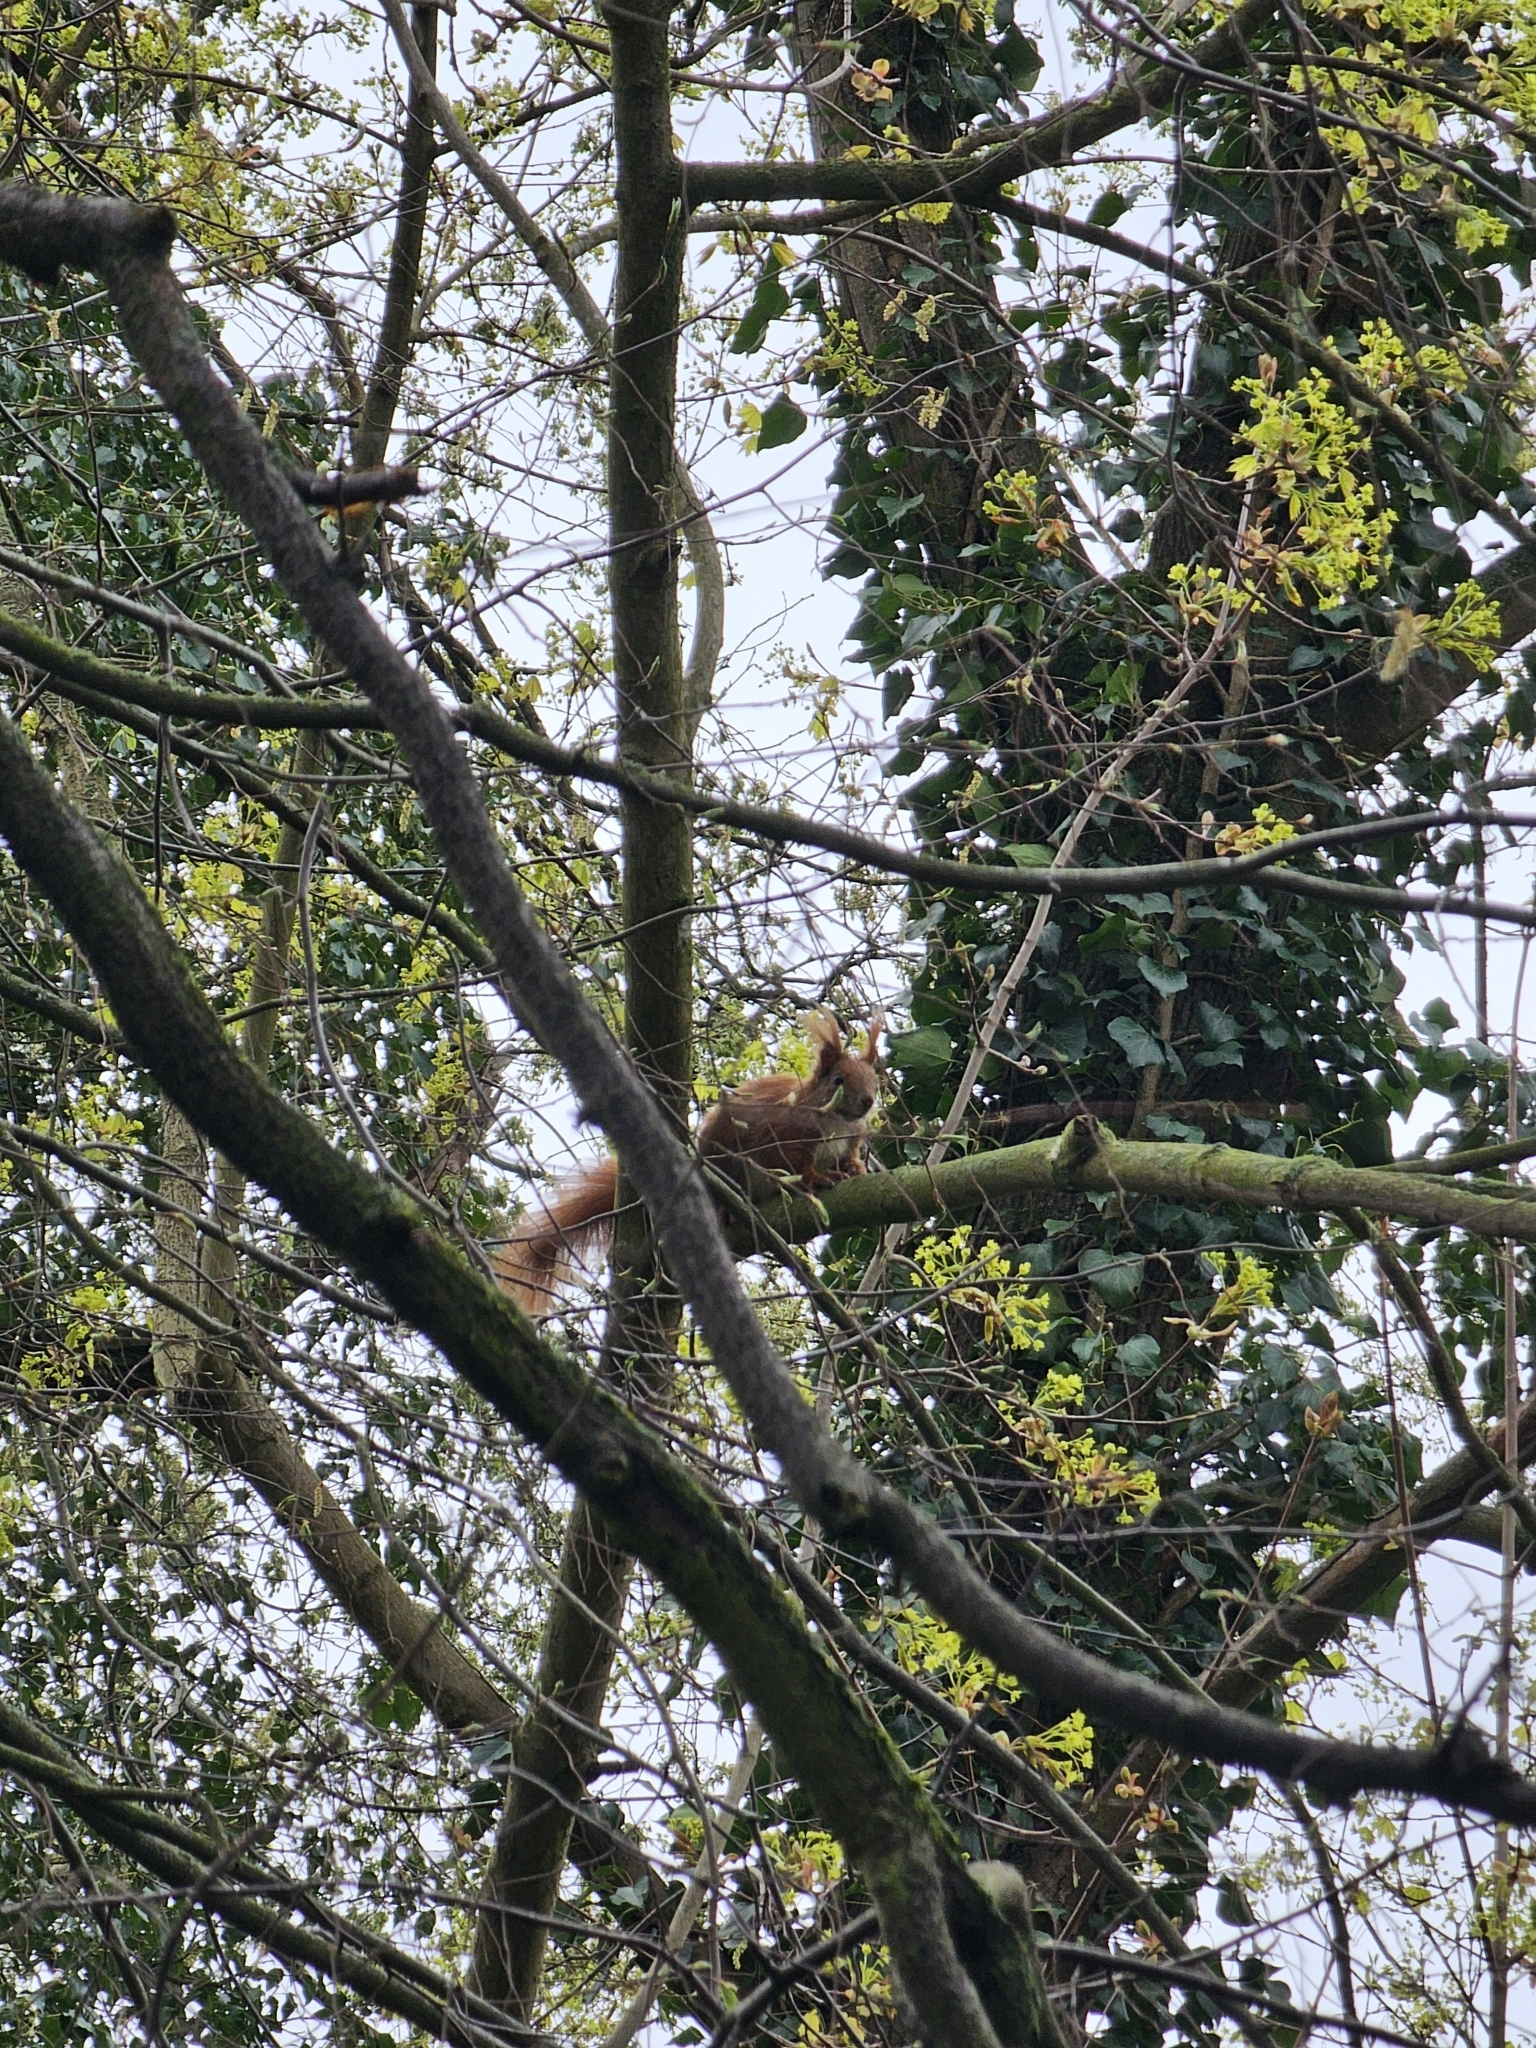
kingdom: Animalia
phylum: Chordata
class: Mammalia
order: Rodentia
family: Sciuridae
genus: Sciurus
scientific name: Sciurus vulgaris
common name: Eurasian red squirrel
